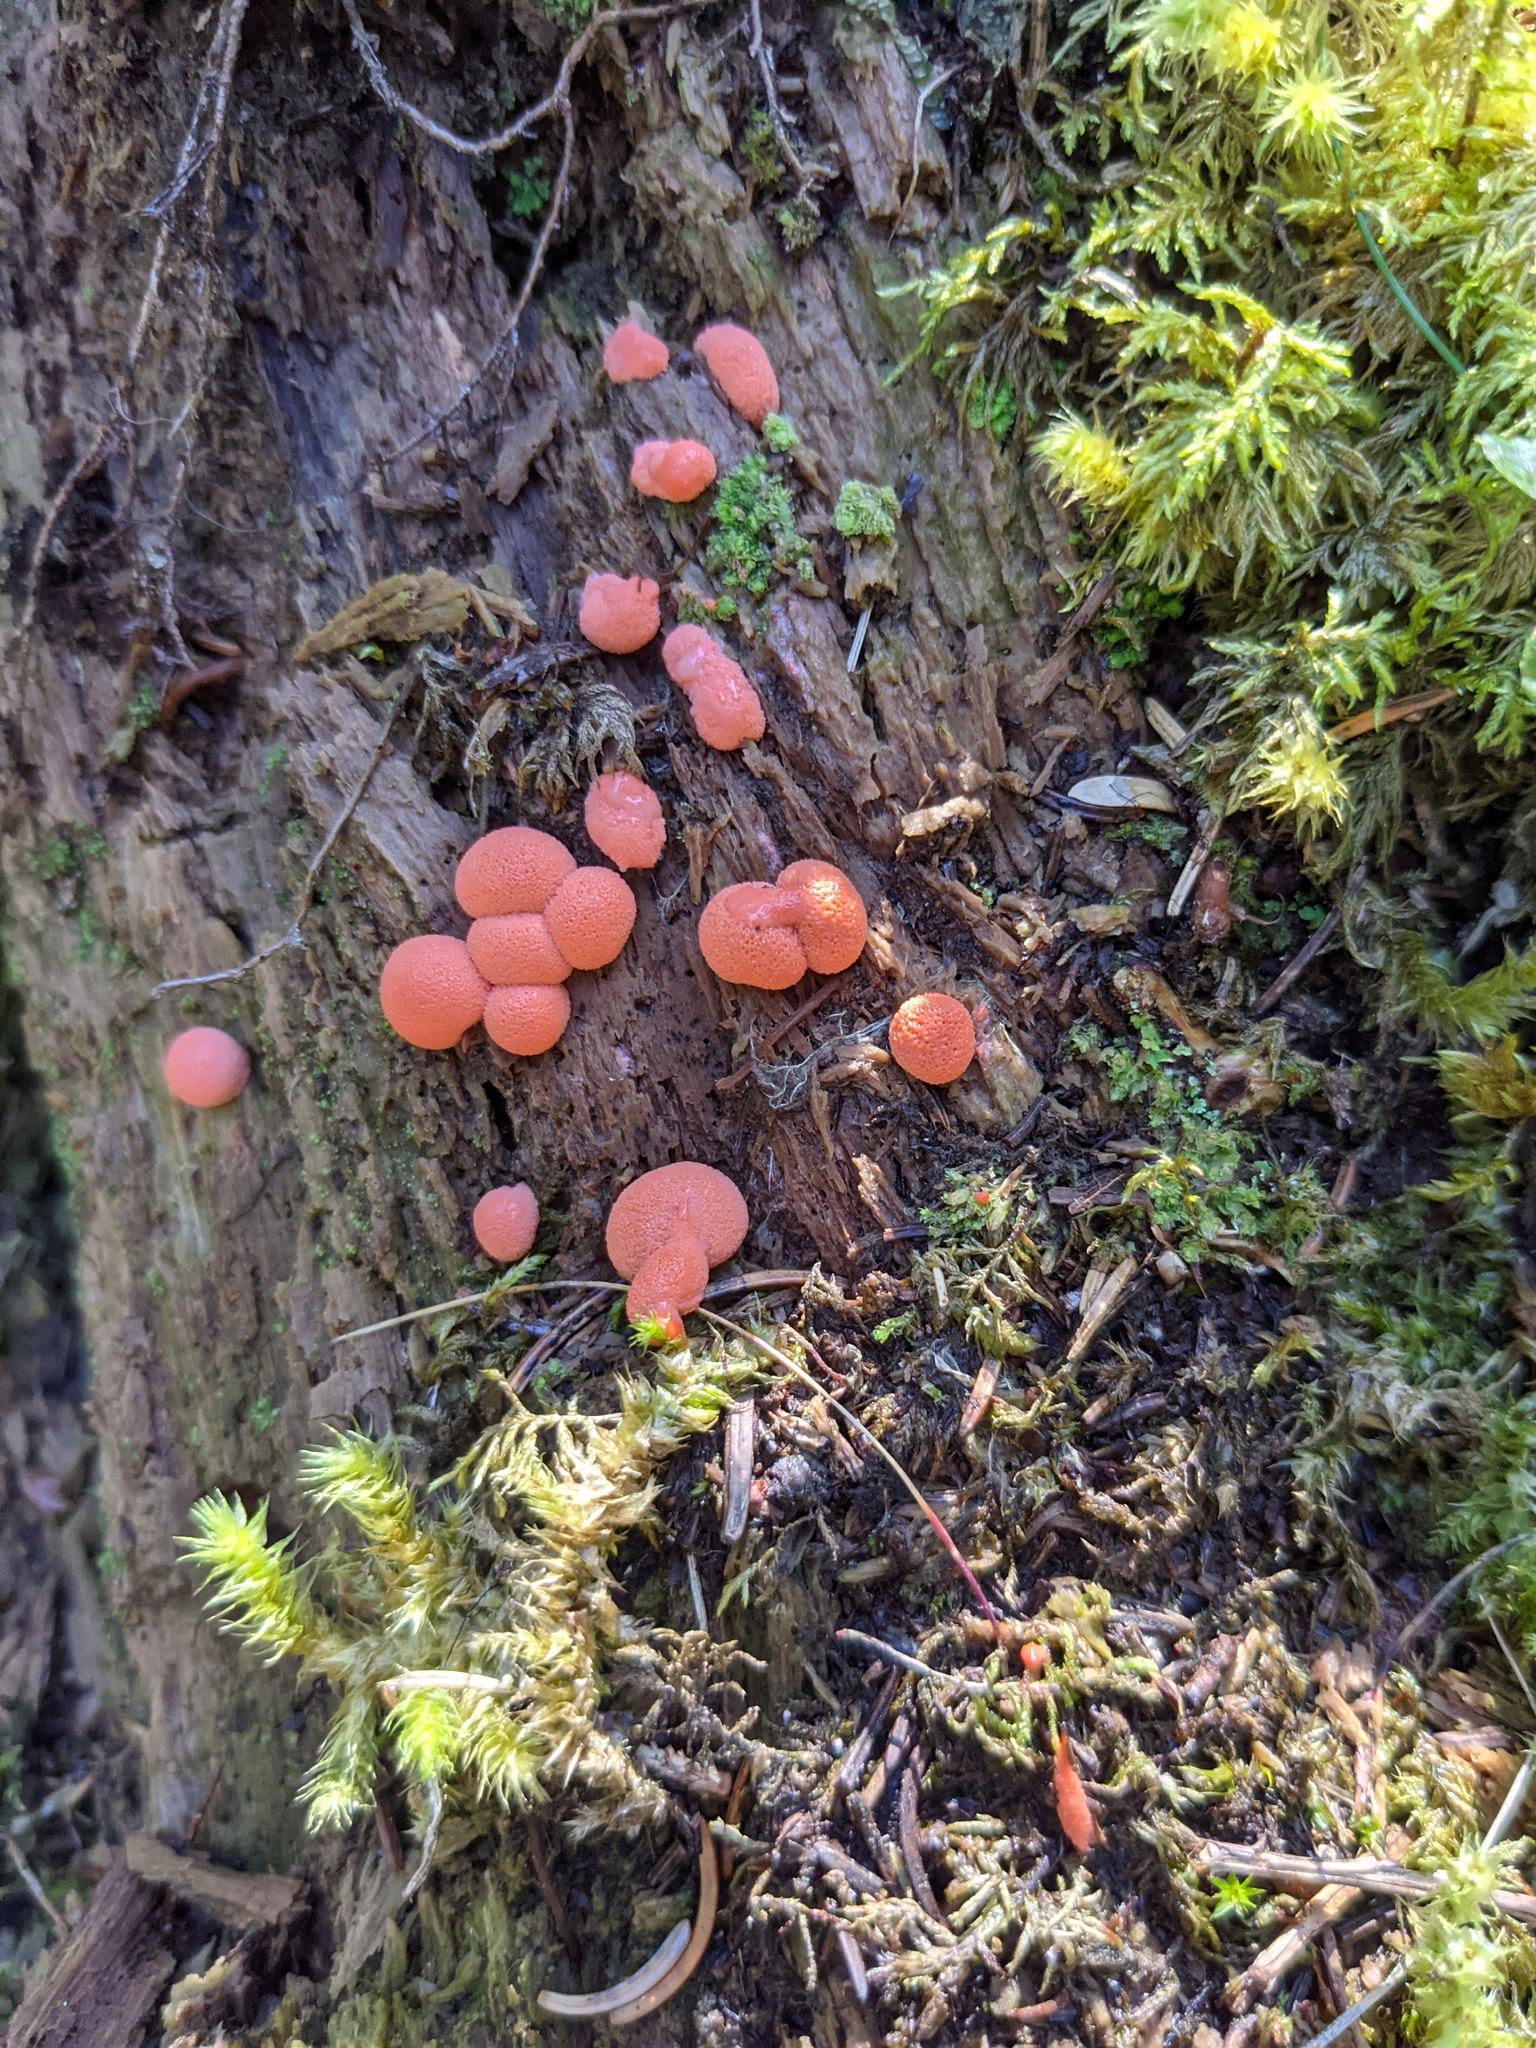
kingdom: Protozoa
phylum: Mycetozoa
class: Myxomycetes
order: Cribrariales
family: Tubiferaceae
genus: Lycogala
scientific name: Lycogala epidendrum
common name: Wolf's milk
